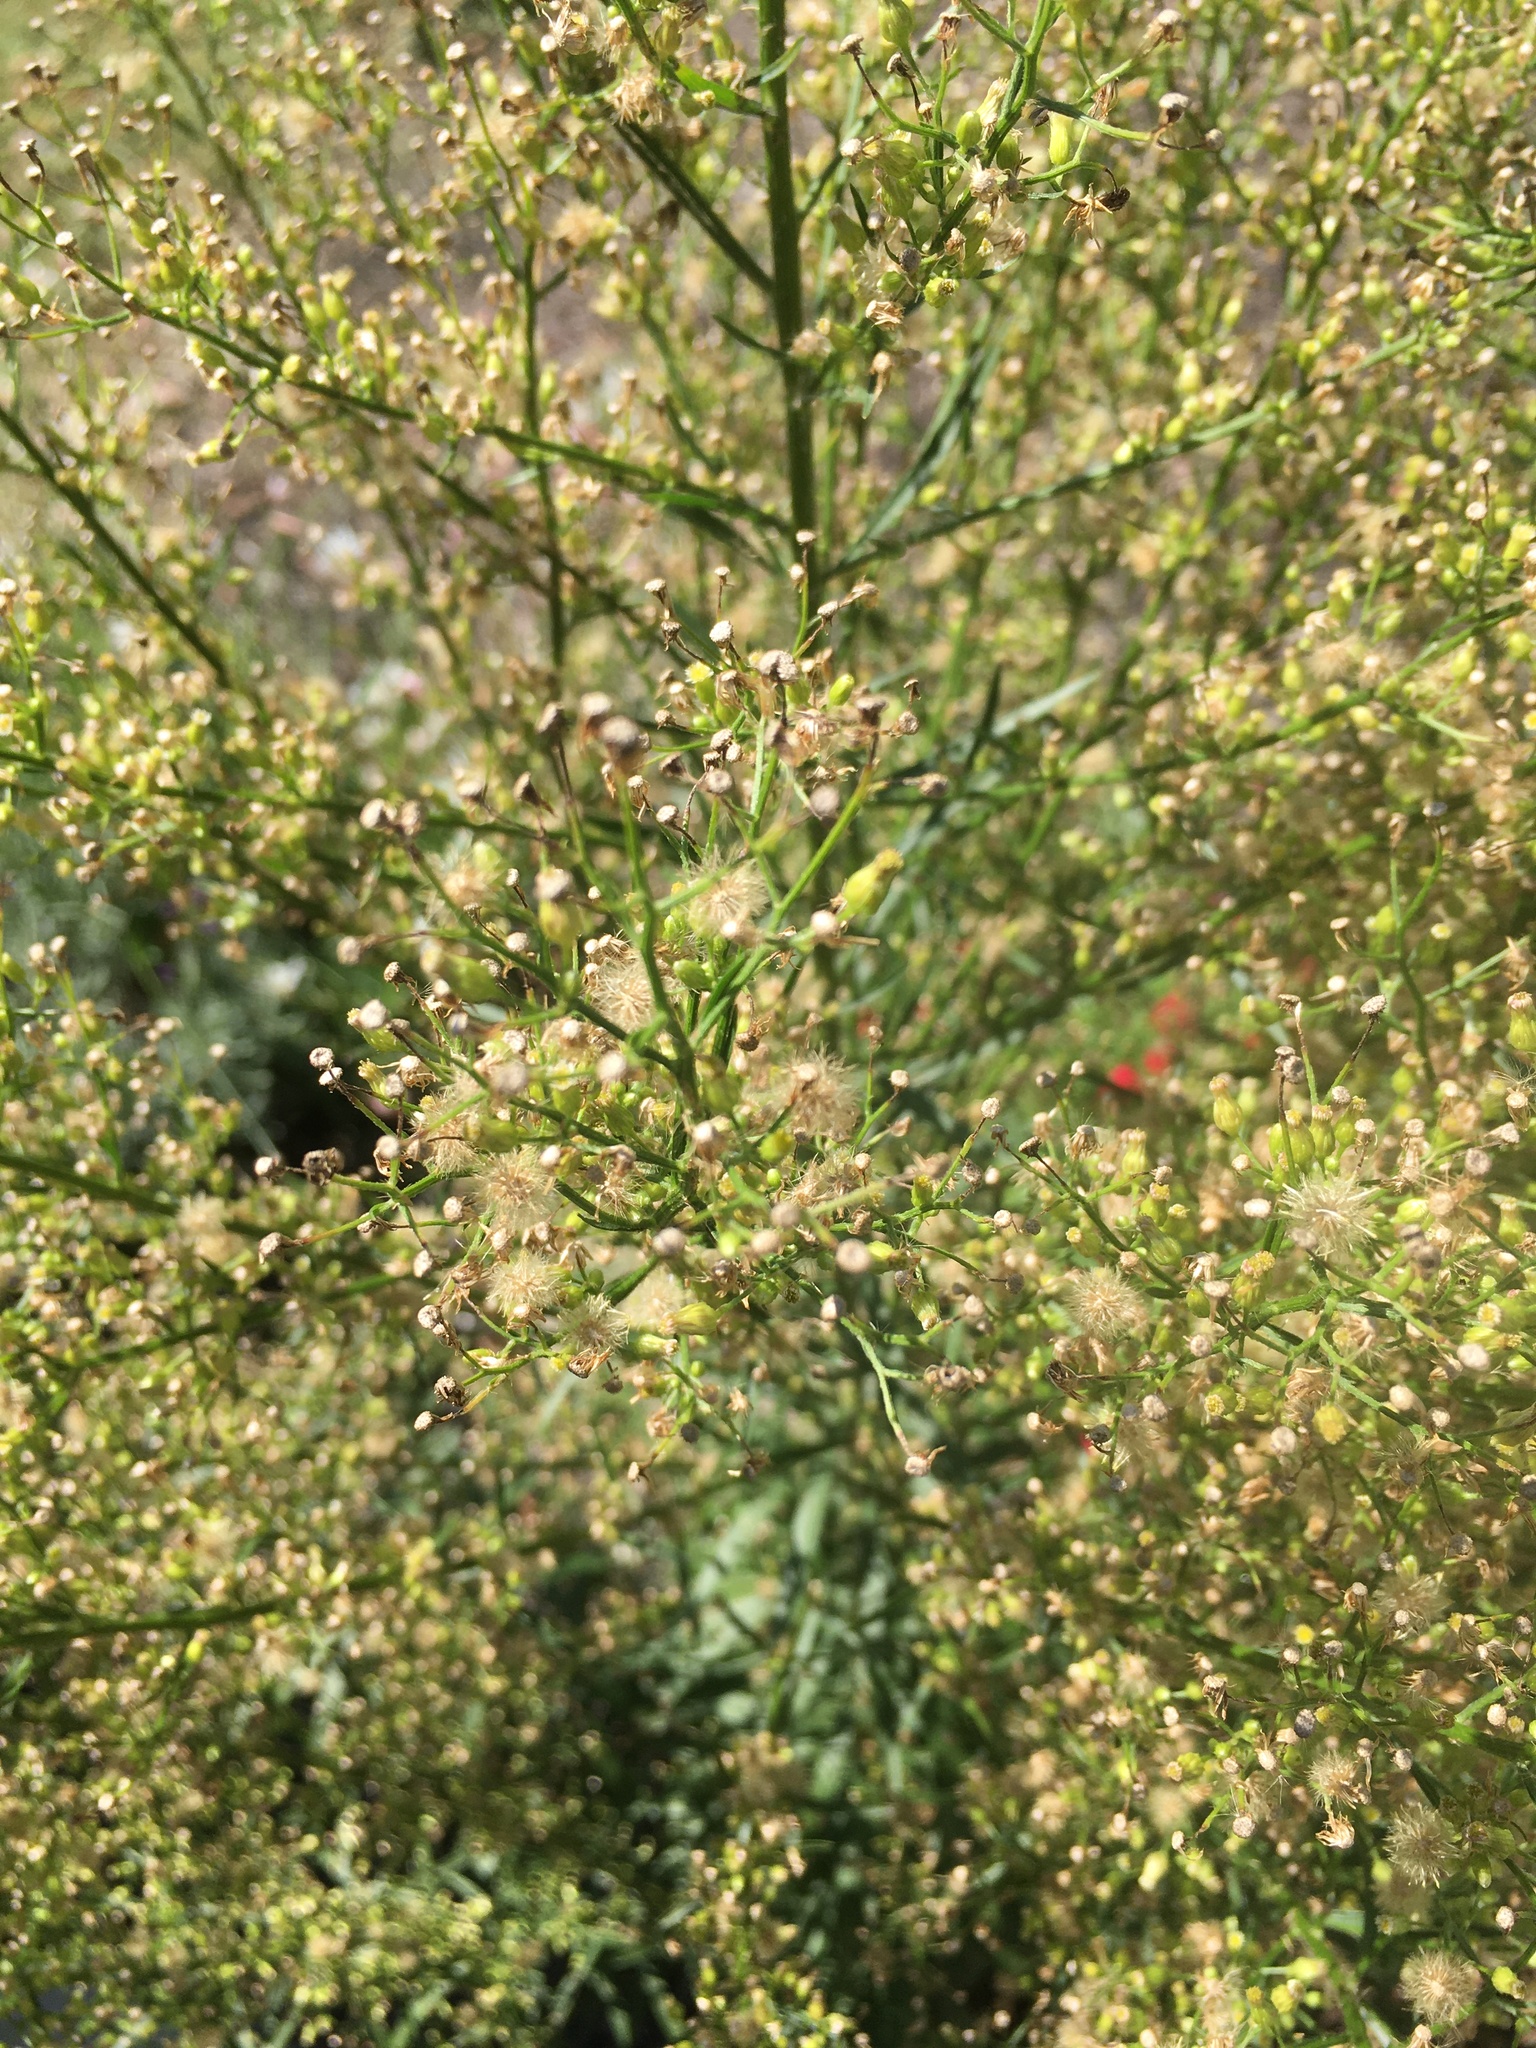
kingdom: Plantae
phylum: Tracheophyta
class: Magnoliopsida
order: Asterales
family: Asteraceae
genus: Erigeron
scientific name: Erigeron canadensis
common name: Canadian fleabane
